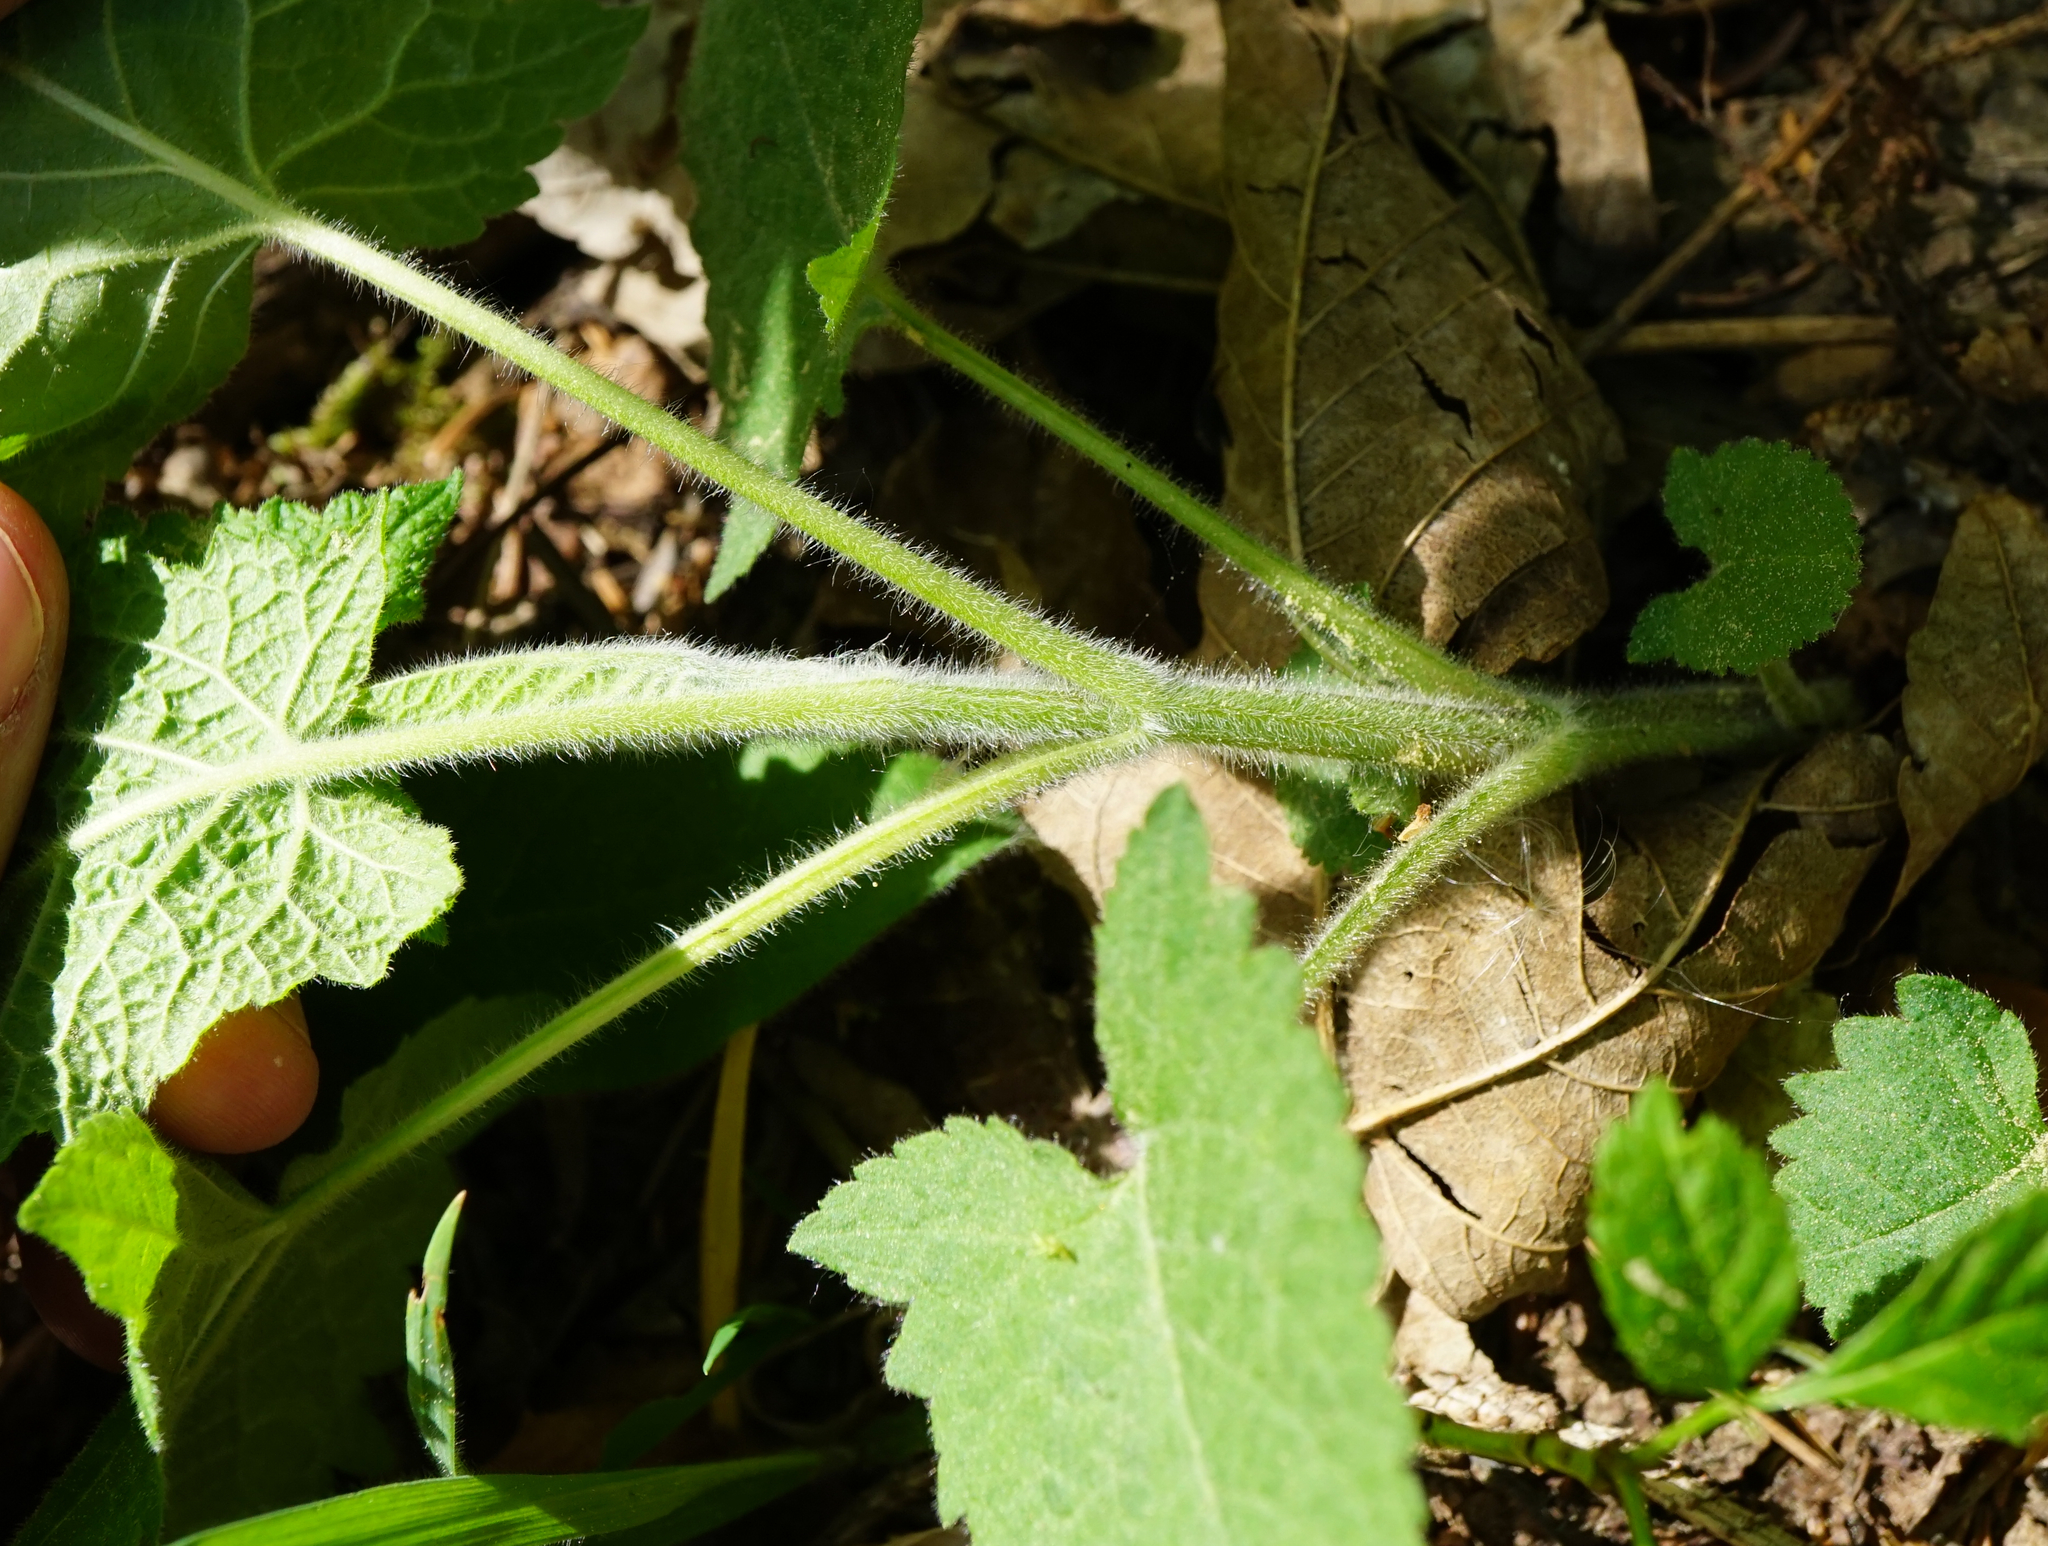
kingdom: Plantae
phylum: Tracheophyta
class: Magnoliopsida
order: Lamiales
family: Lamiaceae
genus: Salvia
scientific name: Salvia glutinosa
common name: Sticky clary
